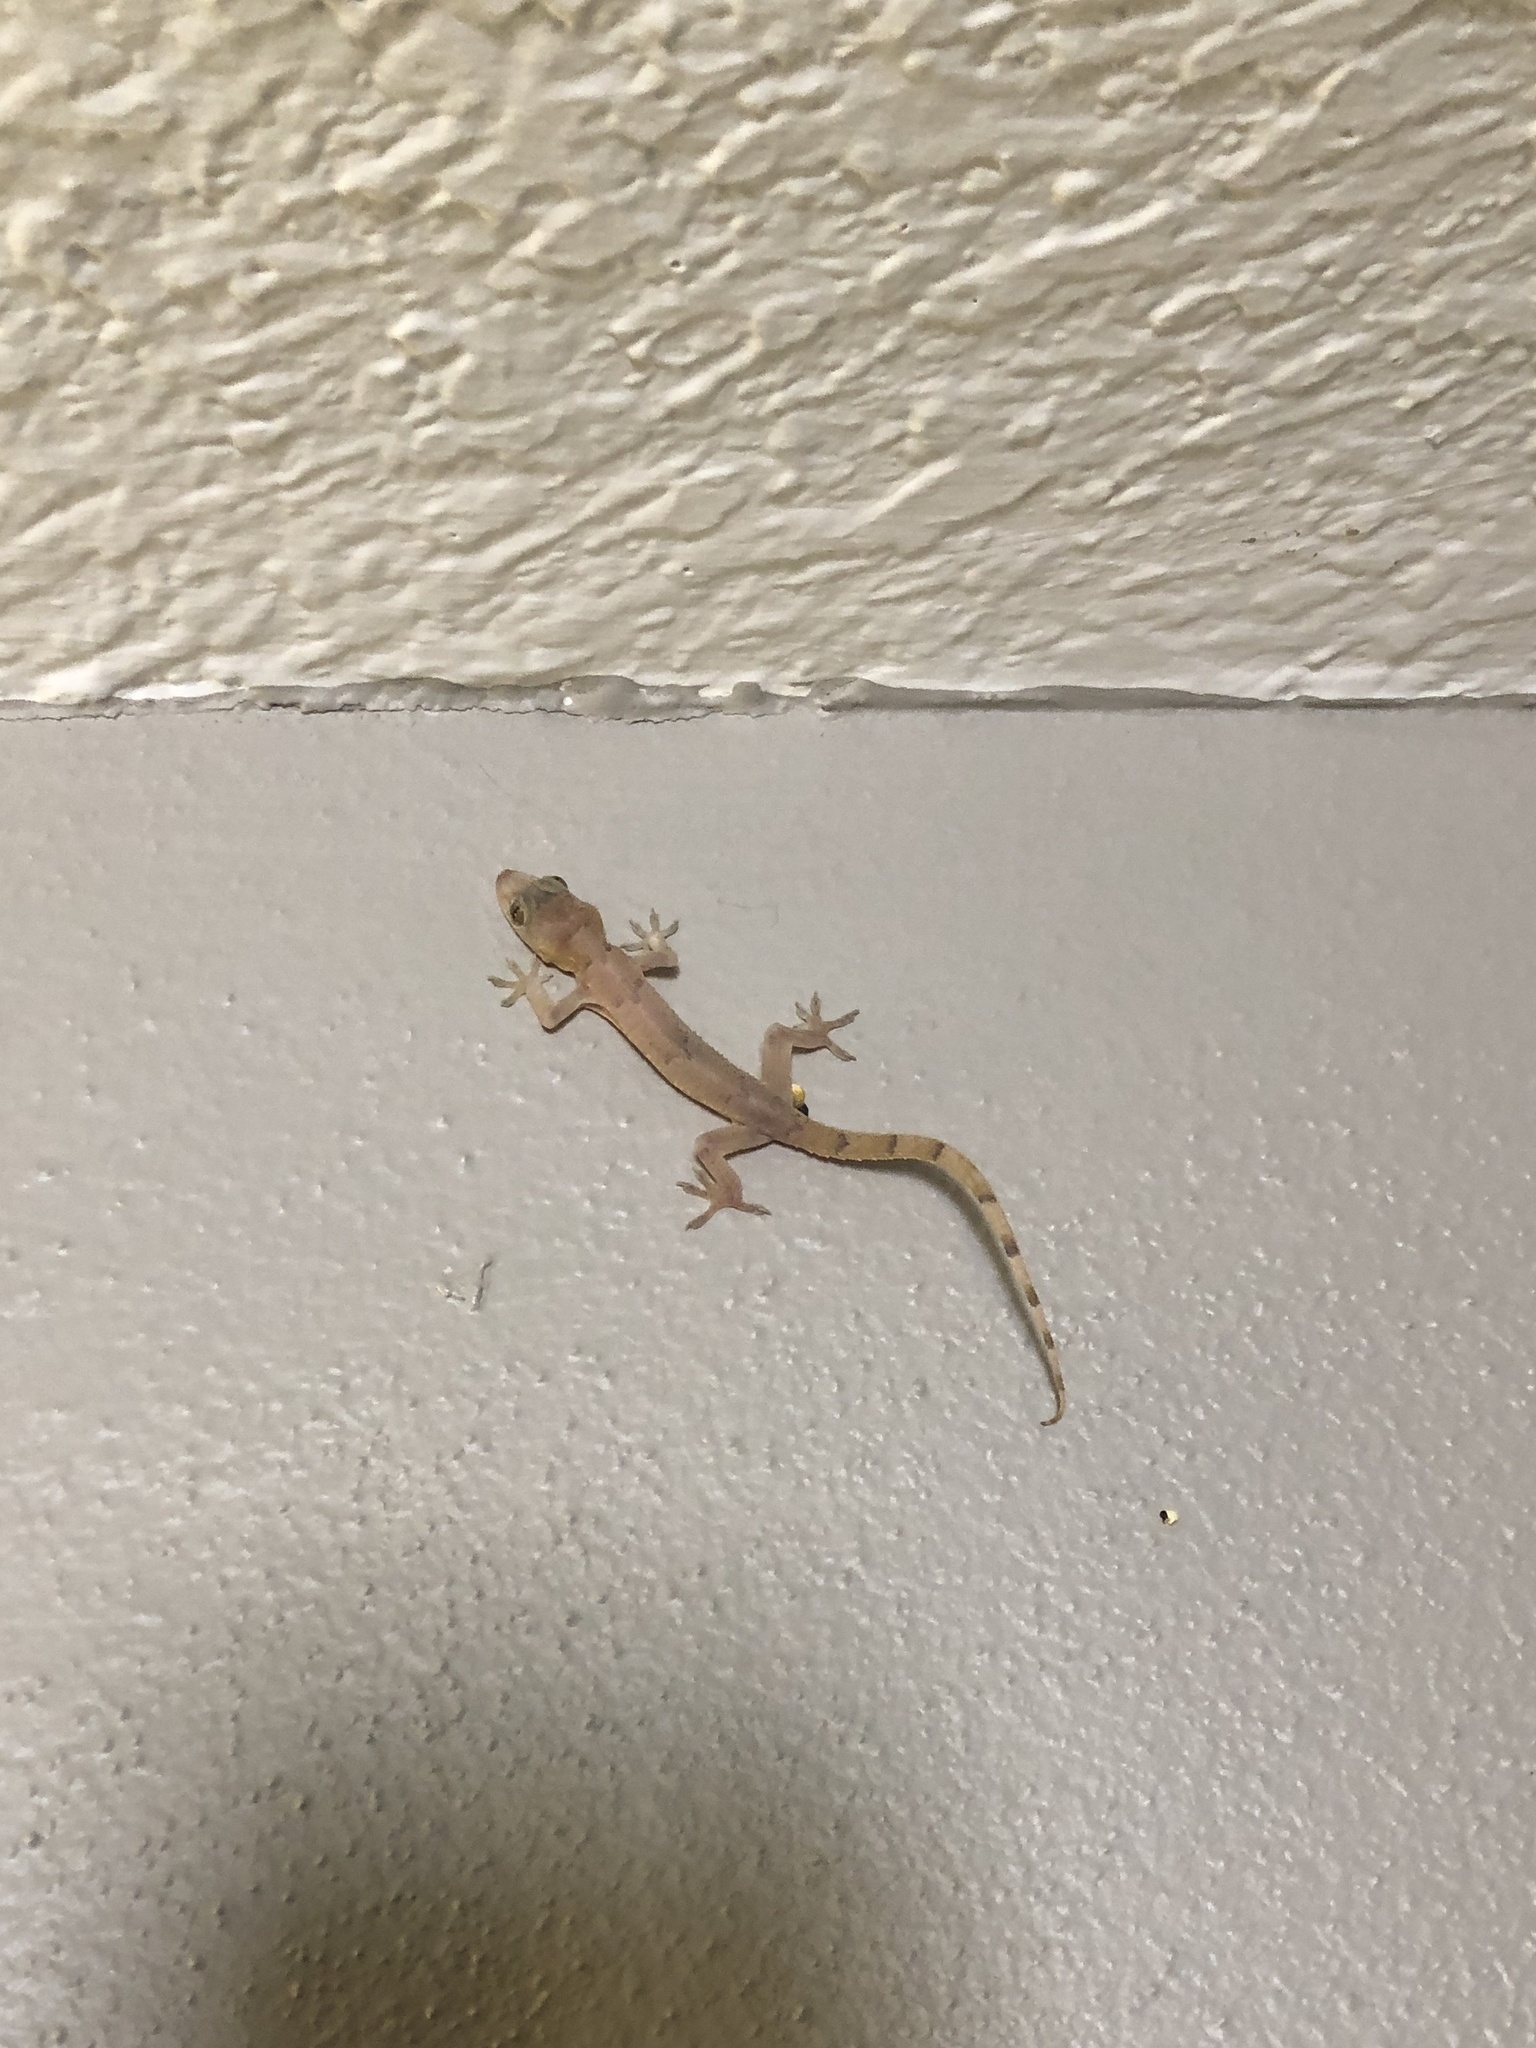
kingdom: Animalia
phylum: Chordata
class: Squamata
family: Gekkonidae
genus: Hemidactylus
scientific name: Hemidactylus mabouia
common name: House gecko
